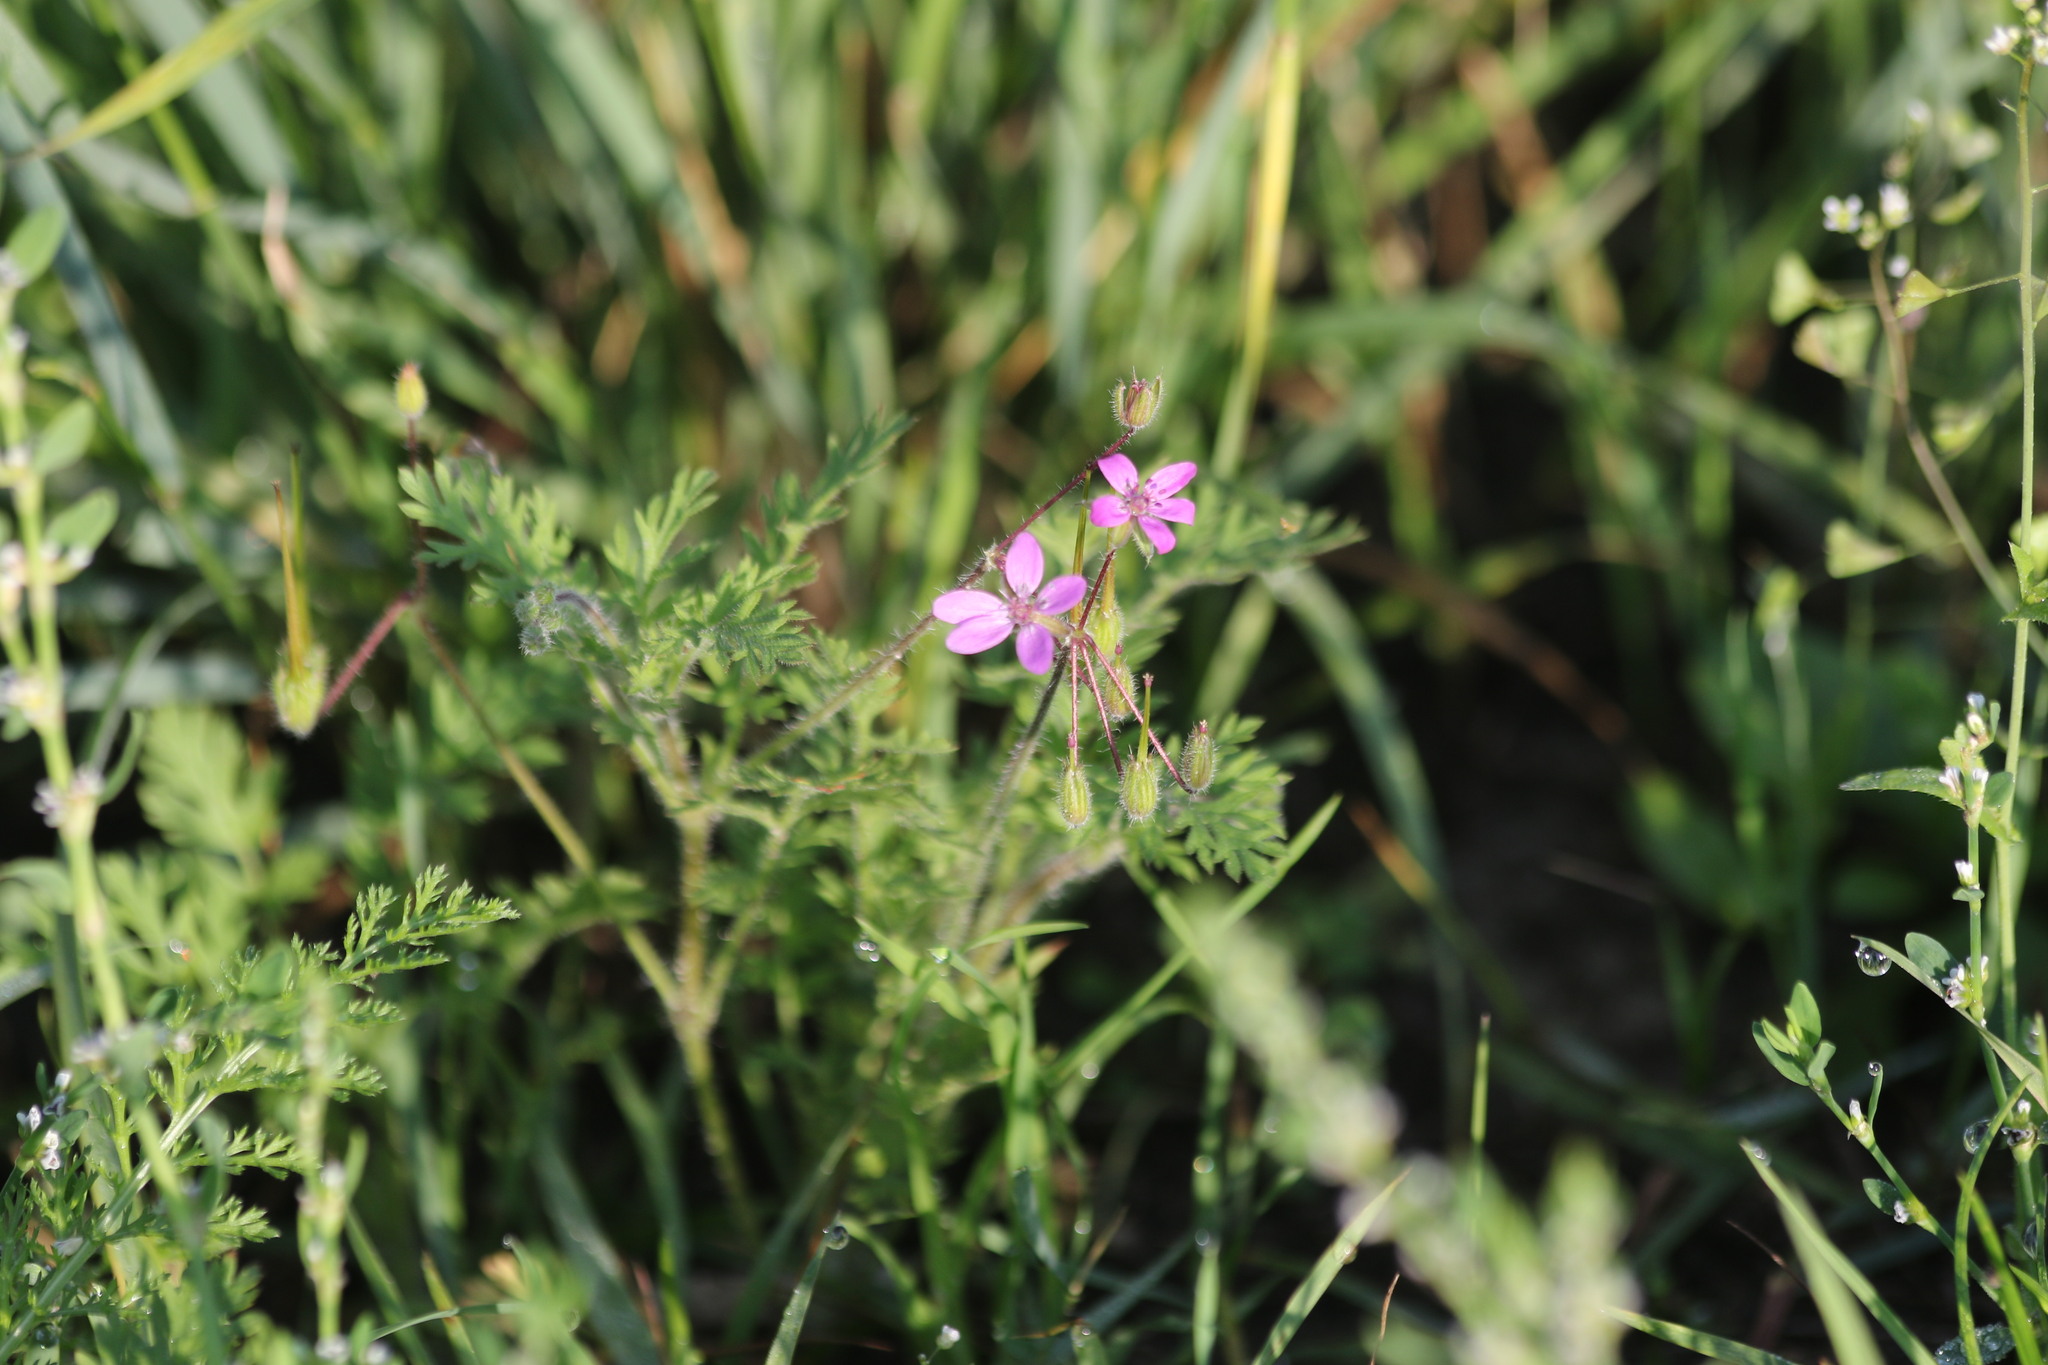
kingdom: Plantae
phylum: Tracheophyta
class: Magnoliopsida
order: Geraniales
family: Geraniaceae
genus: Erodium
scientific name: Erodium cicutarium
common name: Common stork's-bill
